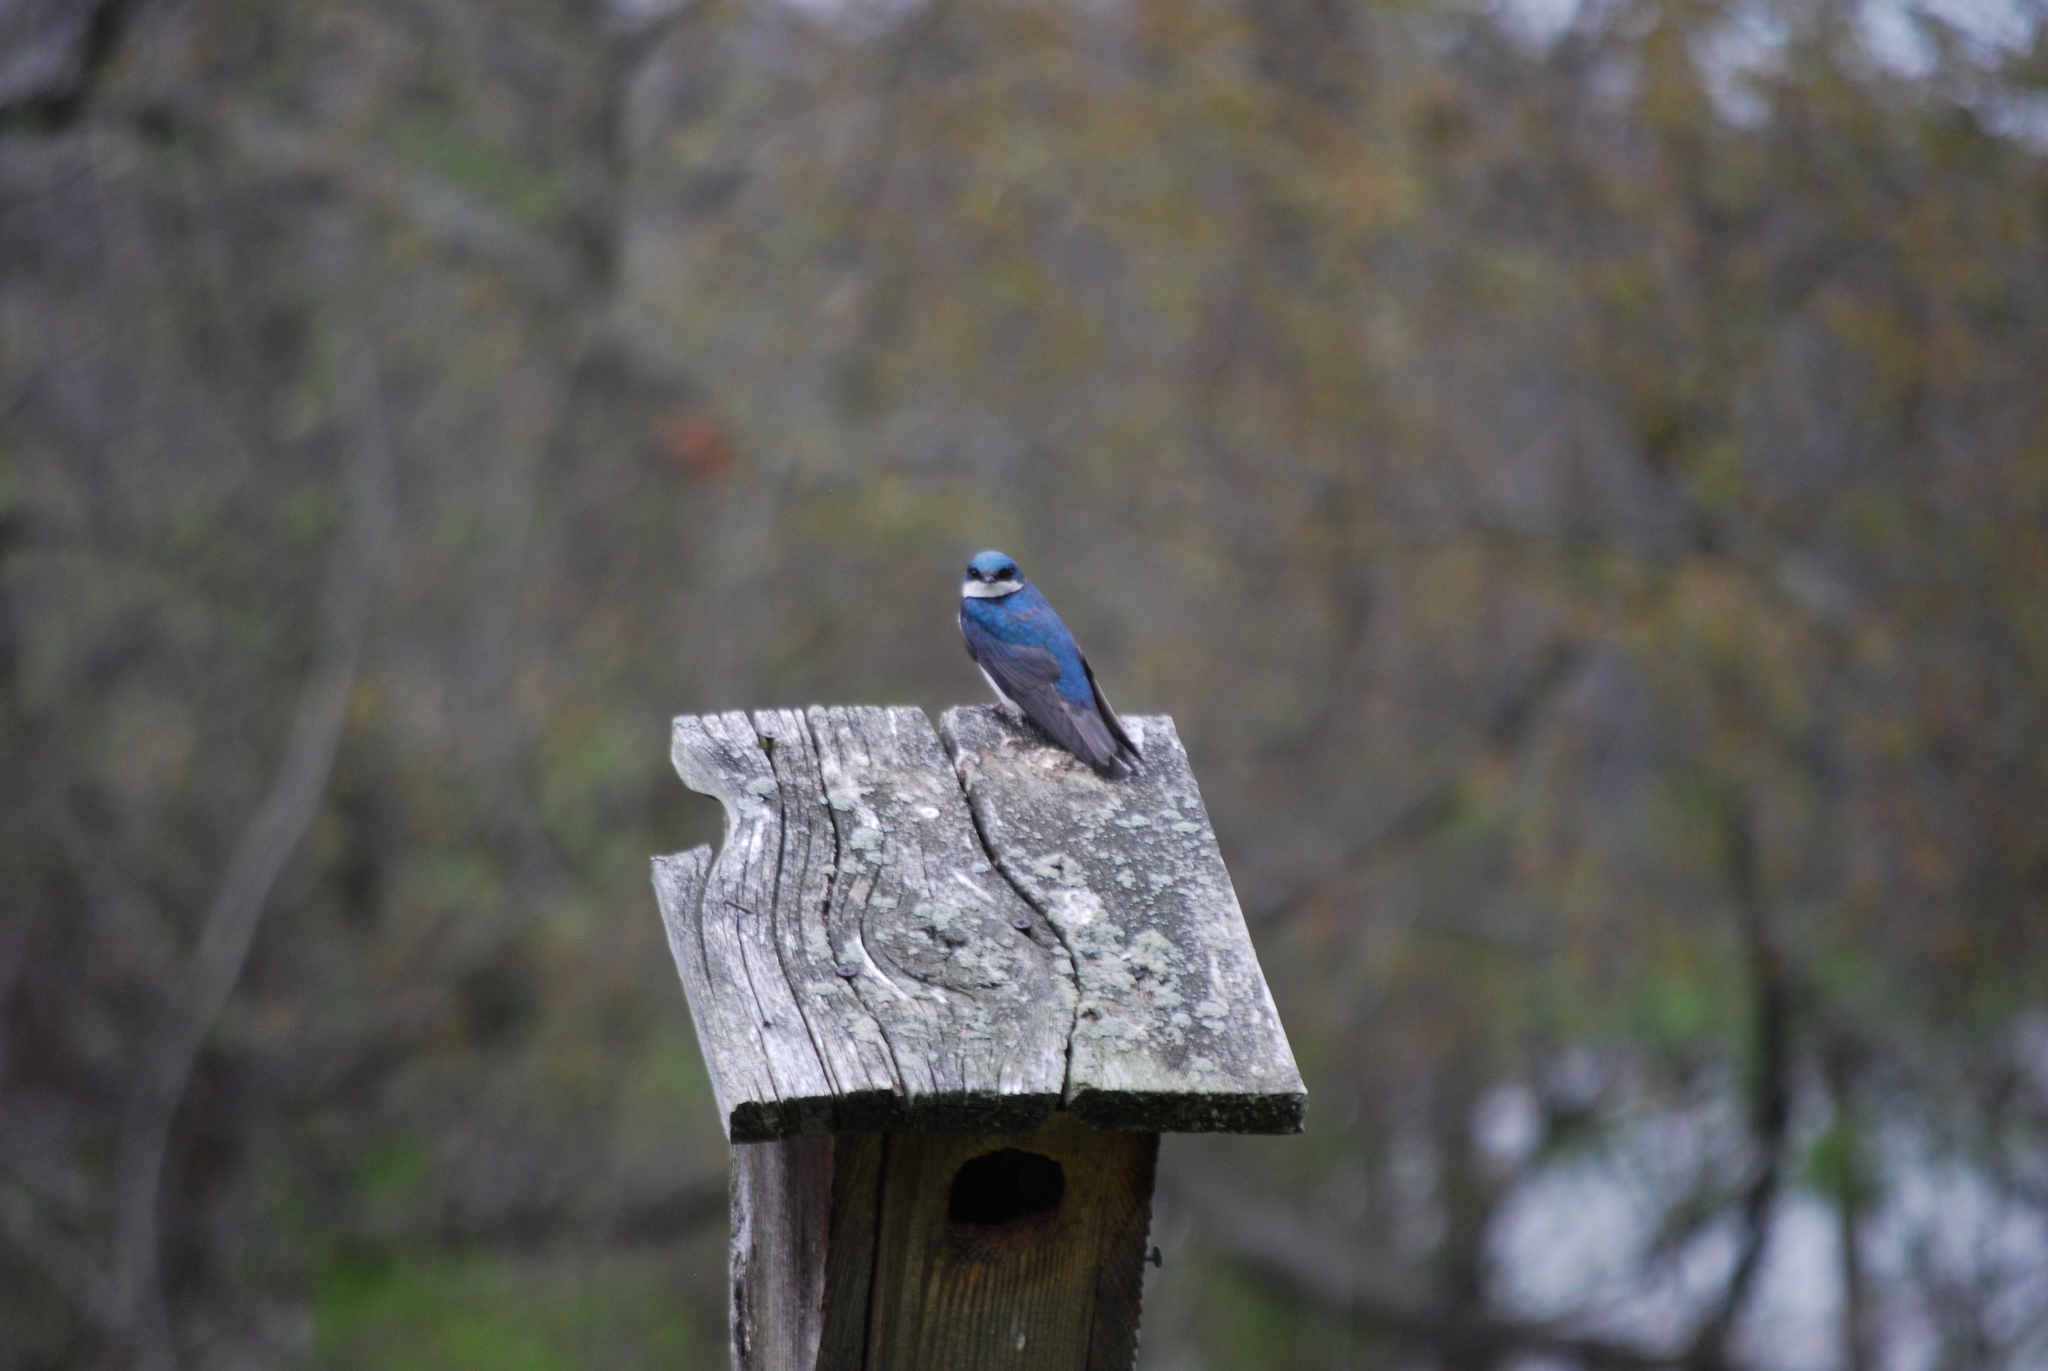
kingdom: Animalia
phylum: Chordata
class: Aves
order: Passeriformes
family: Hirundinidae
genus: Tachycineta
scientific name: Tachycineta bicolor
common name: Tree swallow
